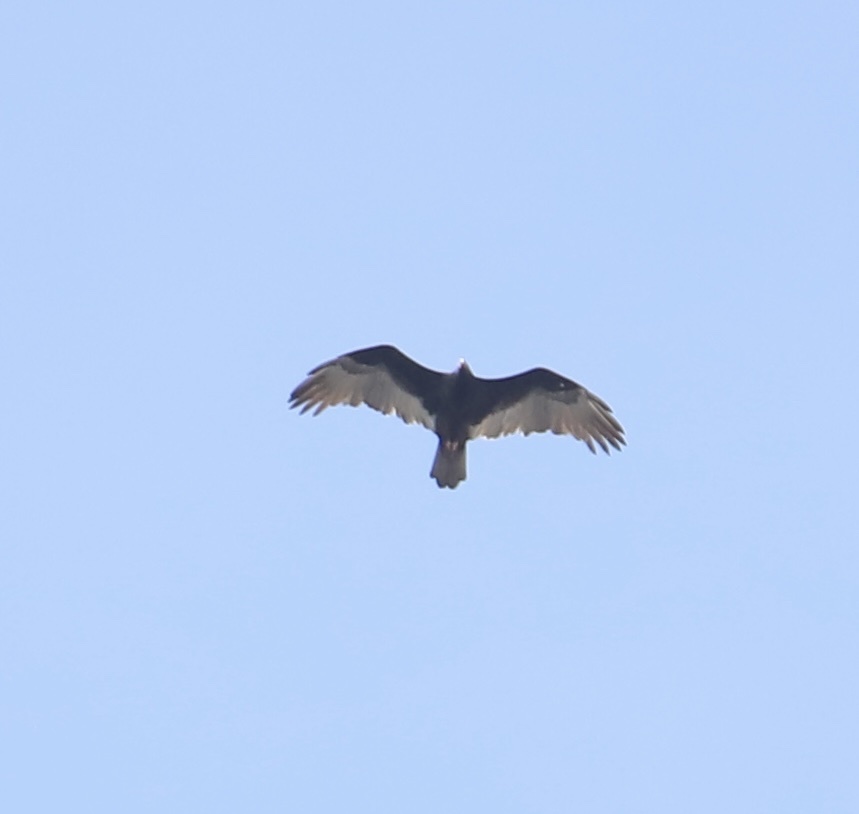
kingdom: Animalia
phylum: Chordata
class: Aves
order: Accipitriformes
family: Cathartidae
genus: Cathartes
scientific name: Cathartes aura
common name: Turkey vulture
